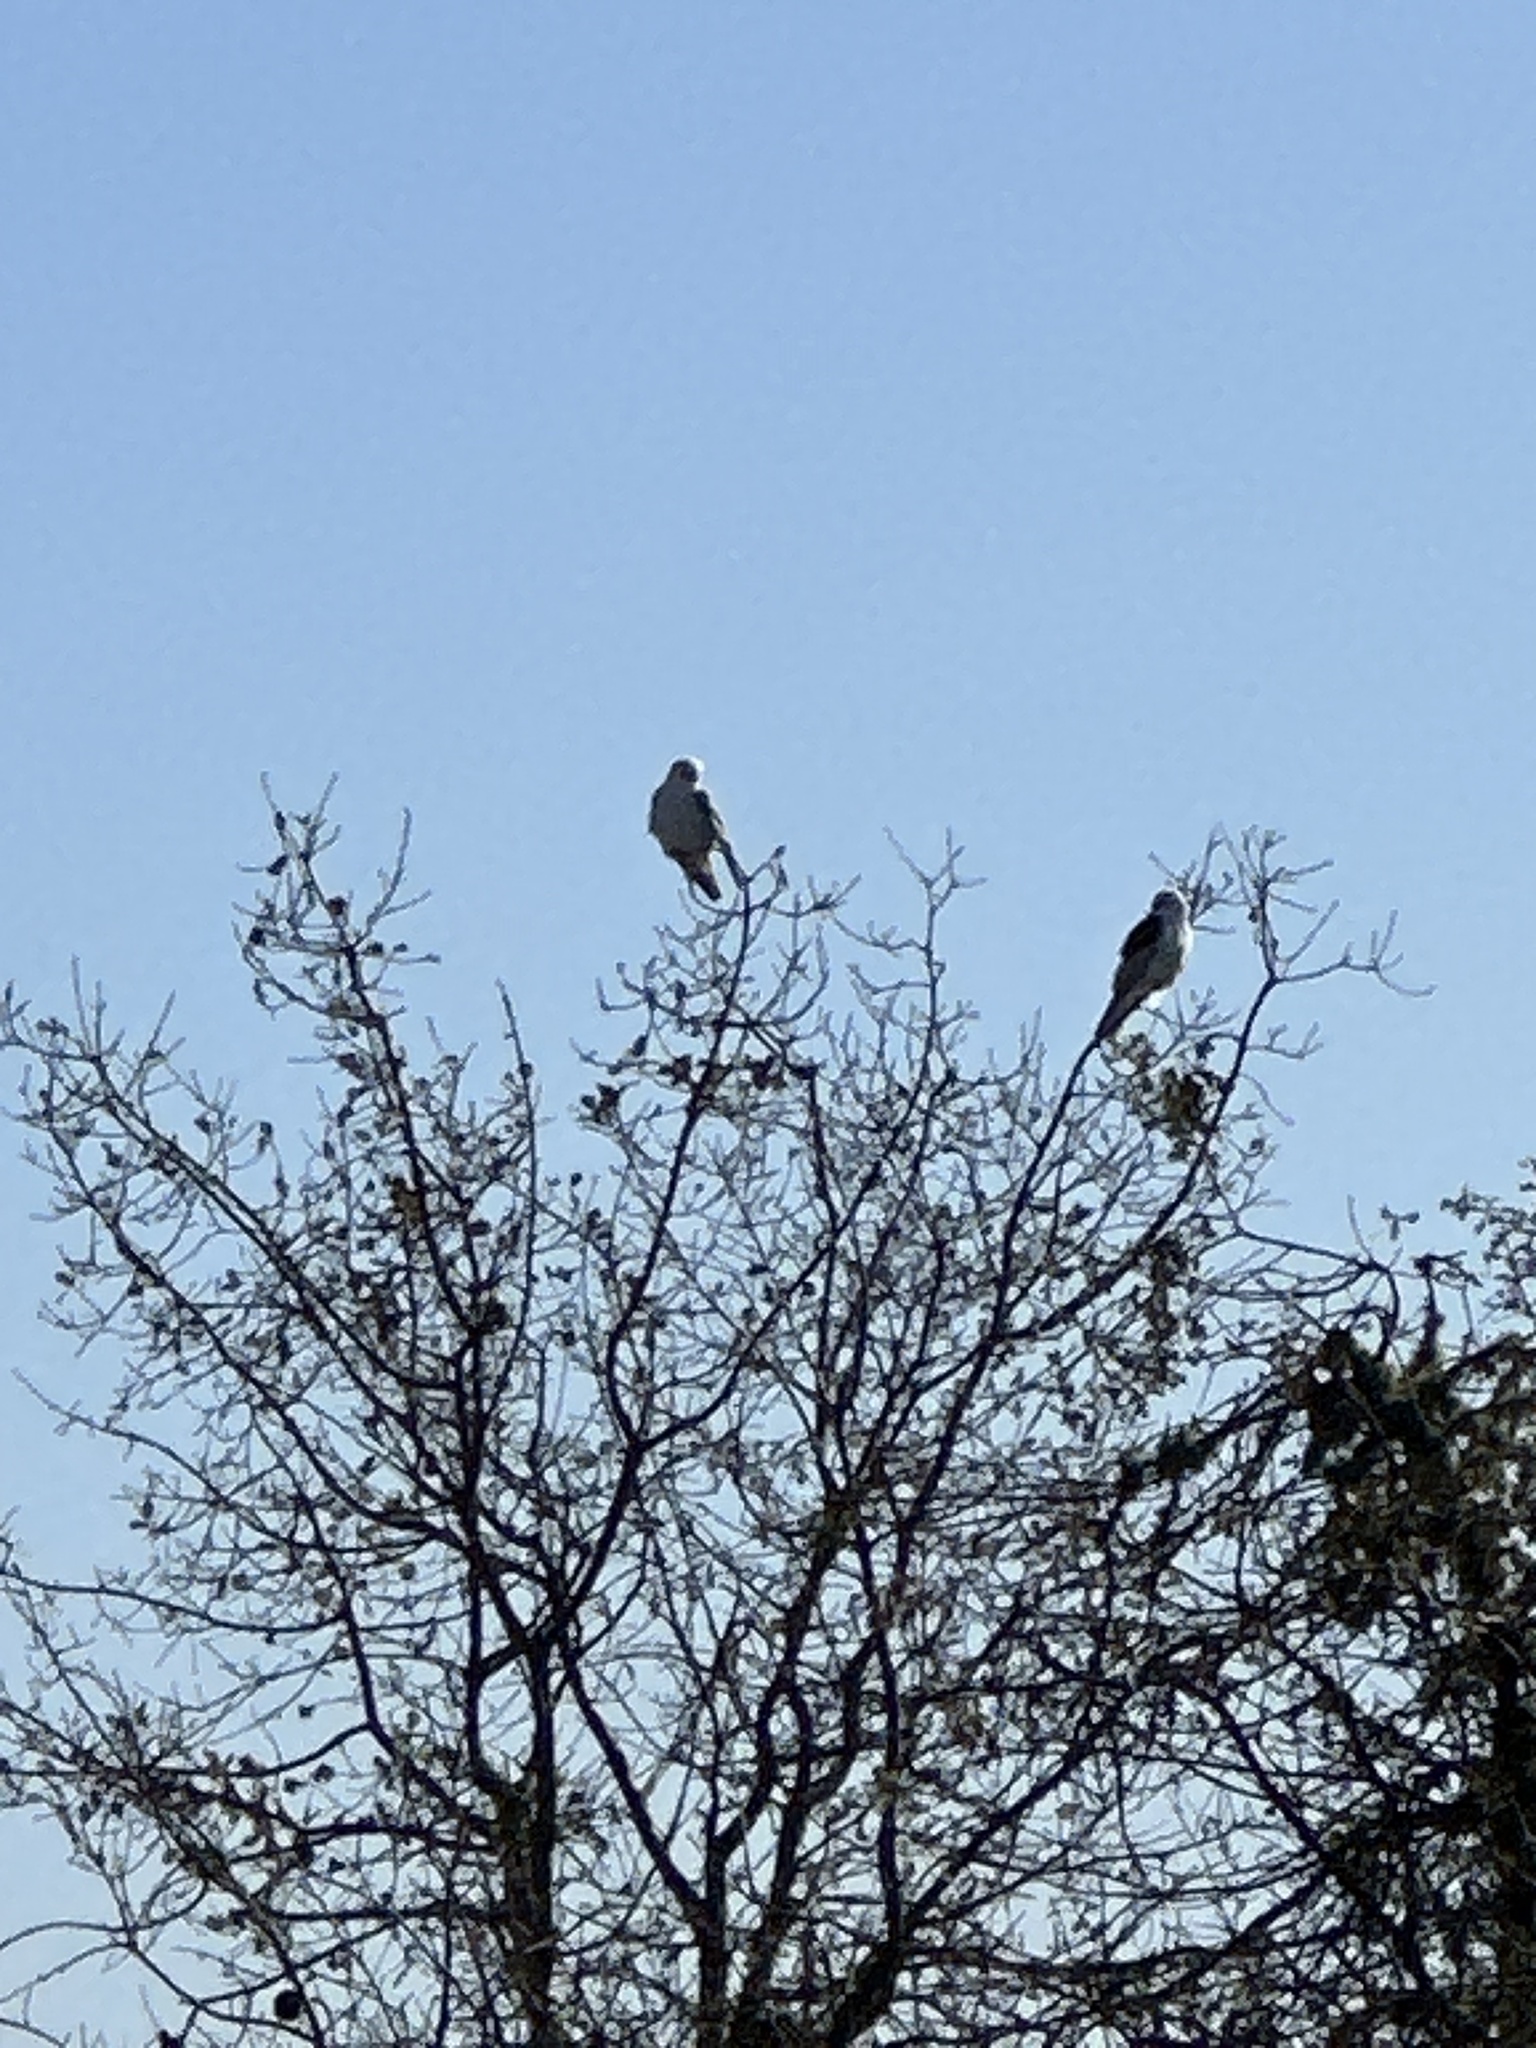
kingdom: Animalia
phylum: Chordata
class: Aves
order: Accipitriformes
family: Accipitridae
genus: Elanus
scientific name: Elanus leucurus
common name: White-tailed kite
